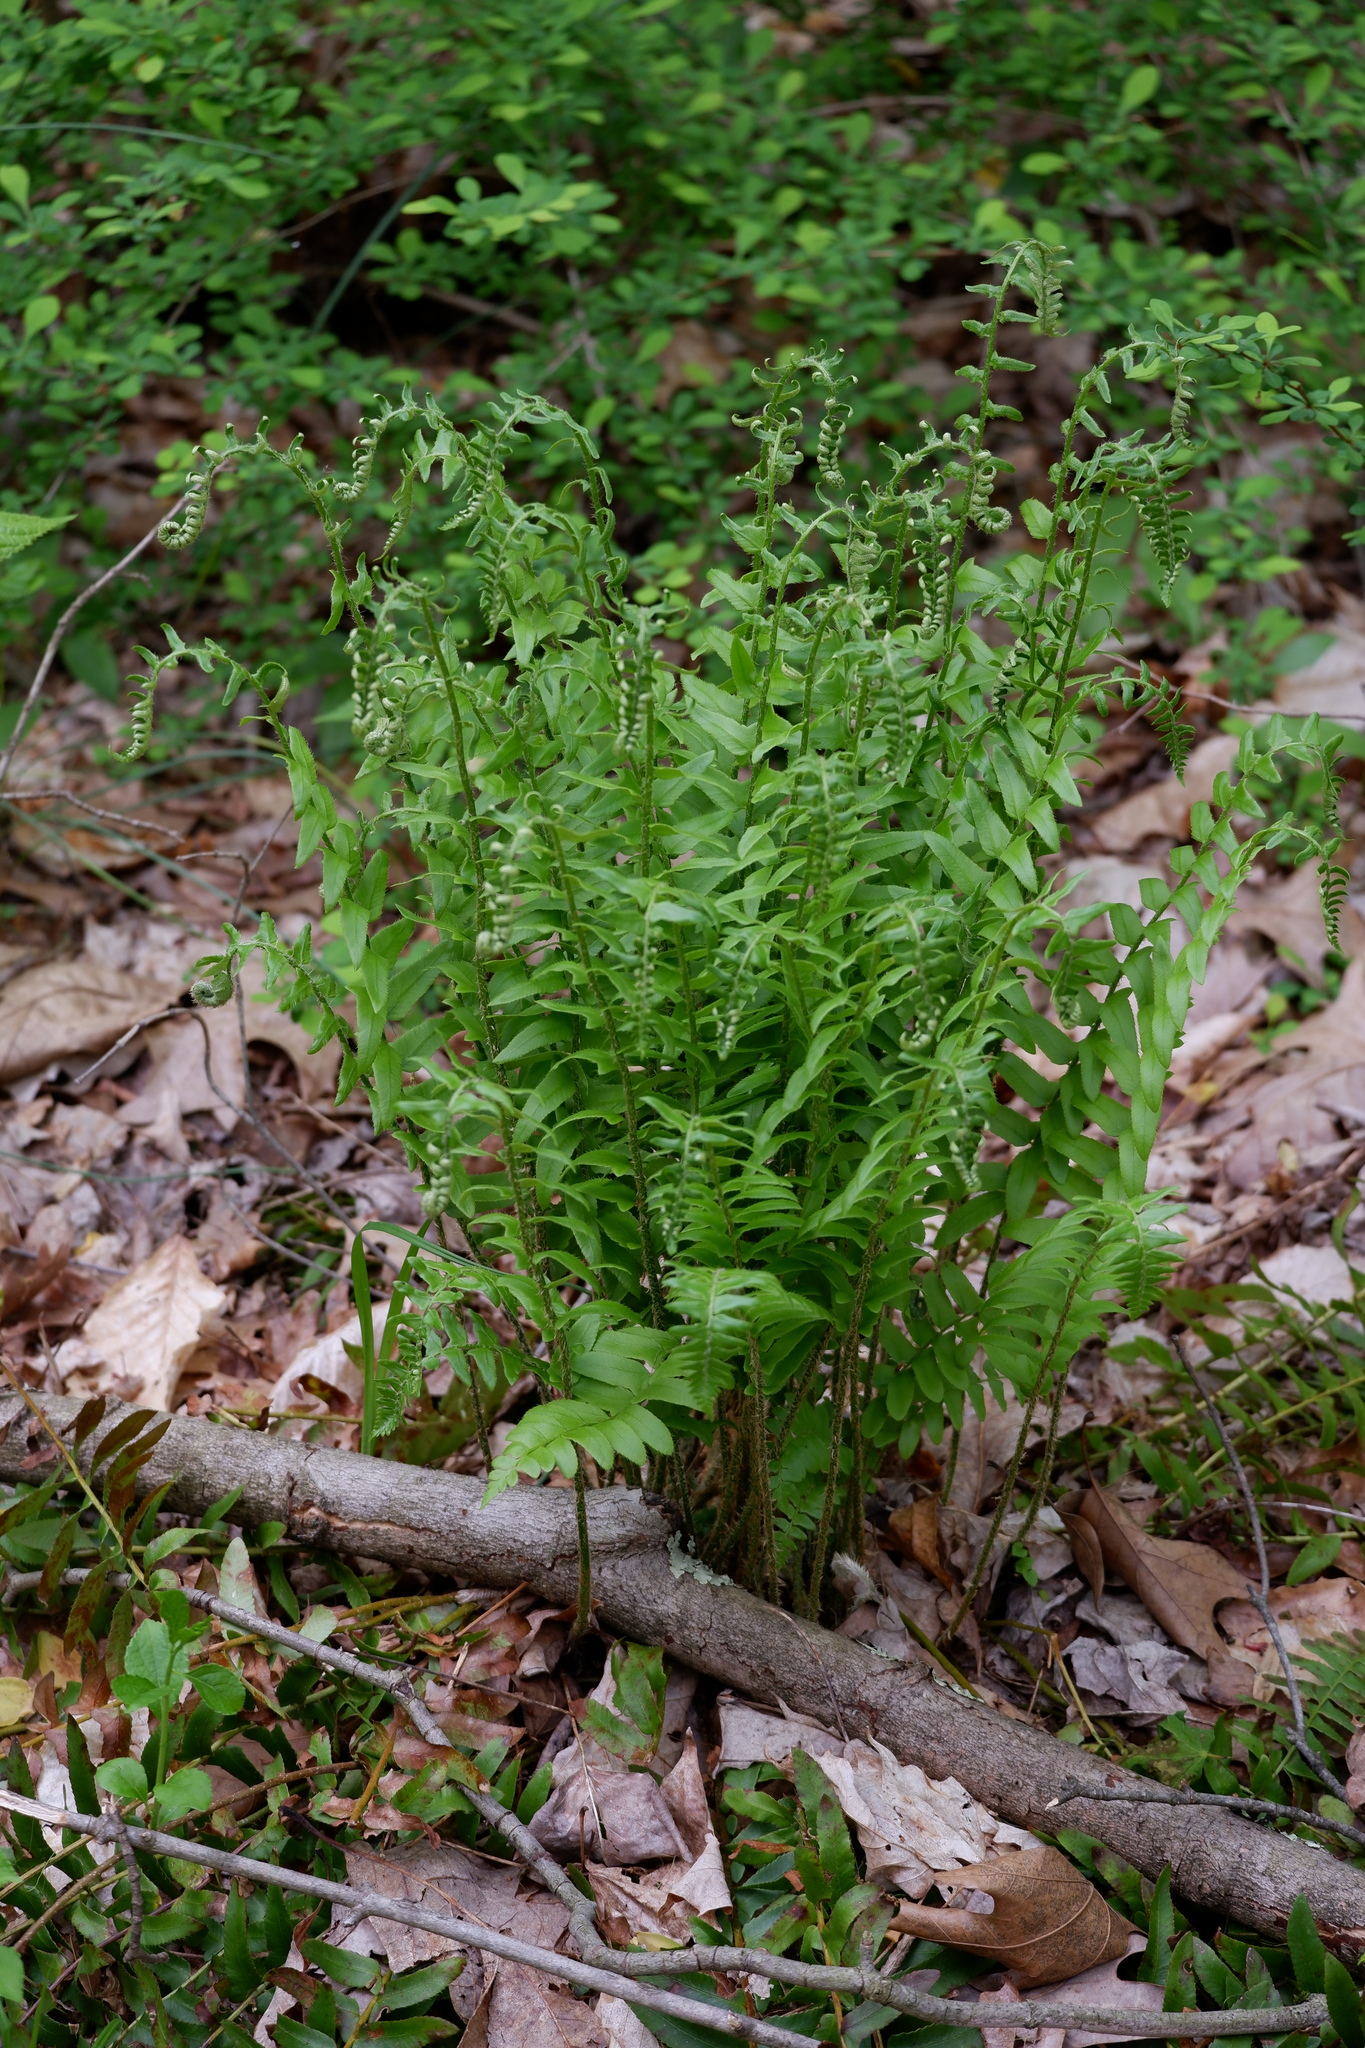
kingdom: Plantae
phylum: Tracheophyta
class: Polypodiopsida
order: Polypodiales
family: Dryopteridaceae
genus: Polystichum
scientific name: Polystichum acrostichoides
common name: Christmas fern
